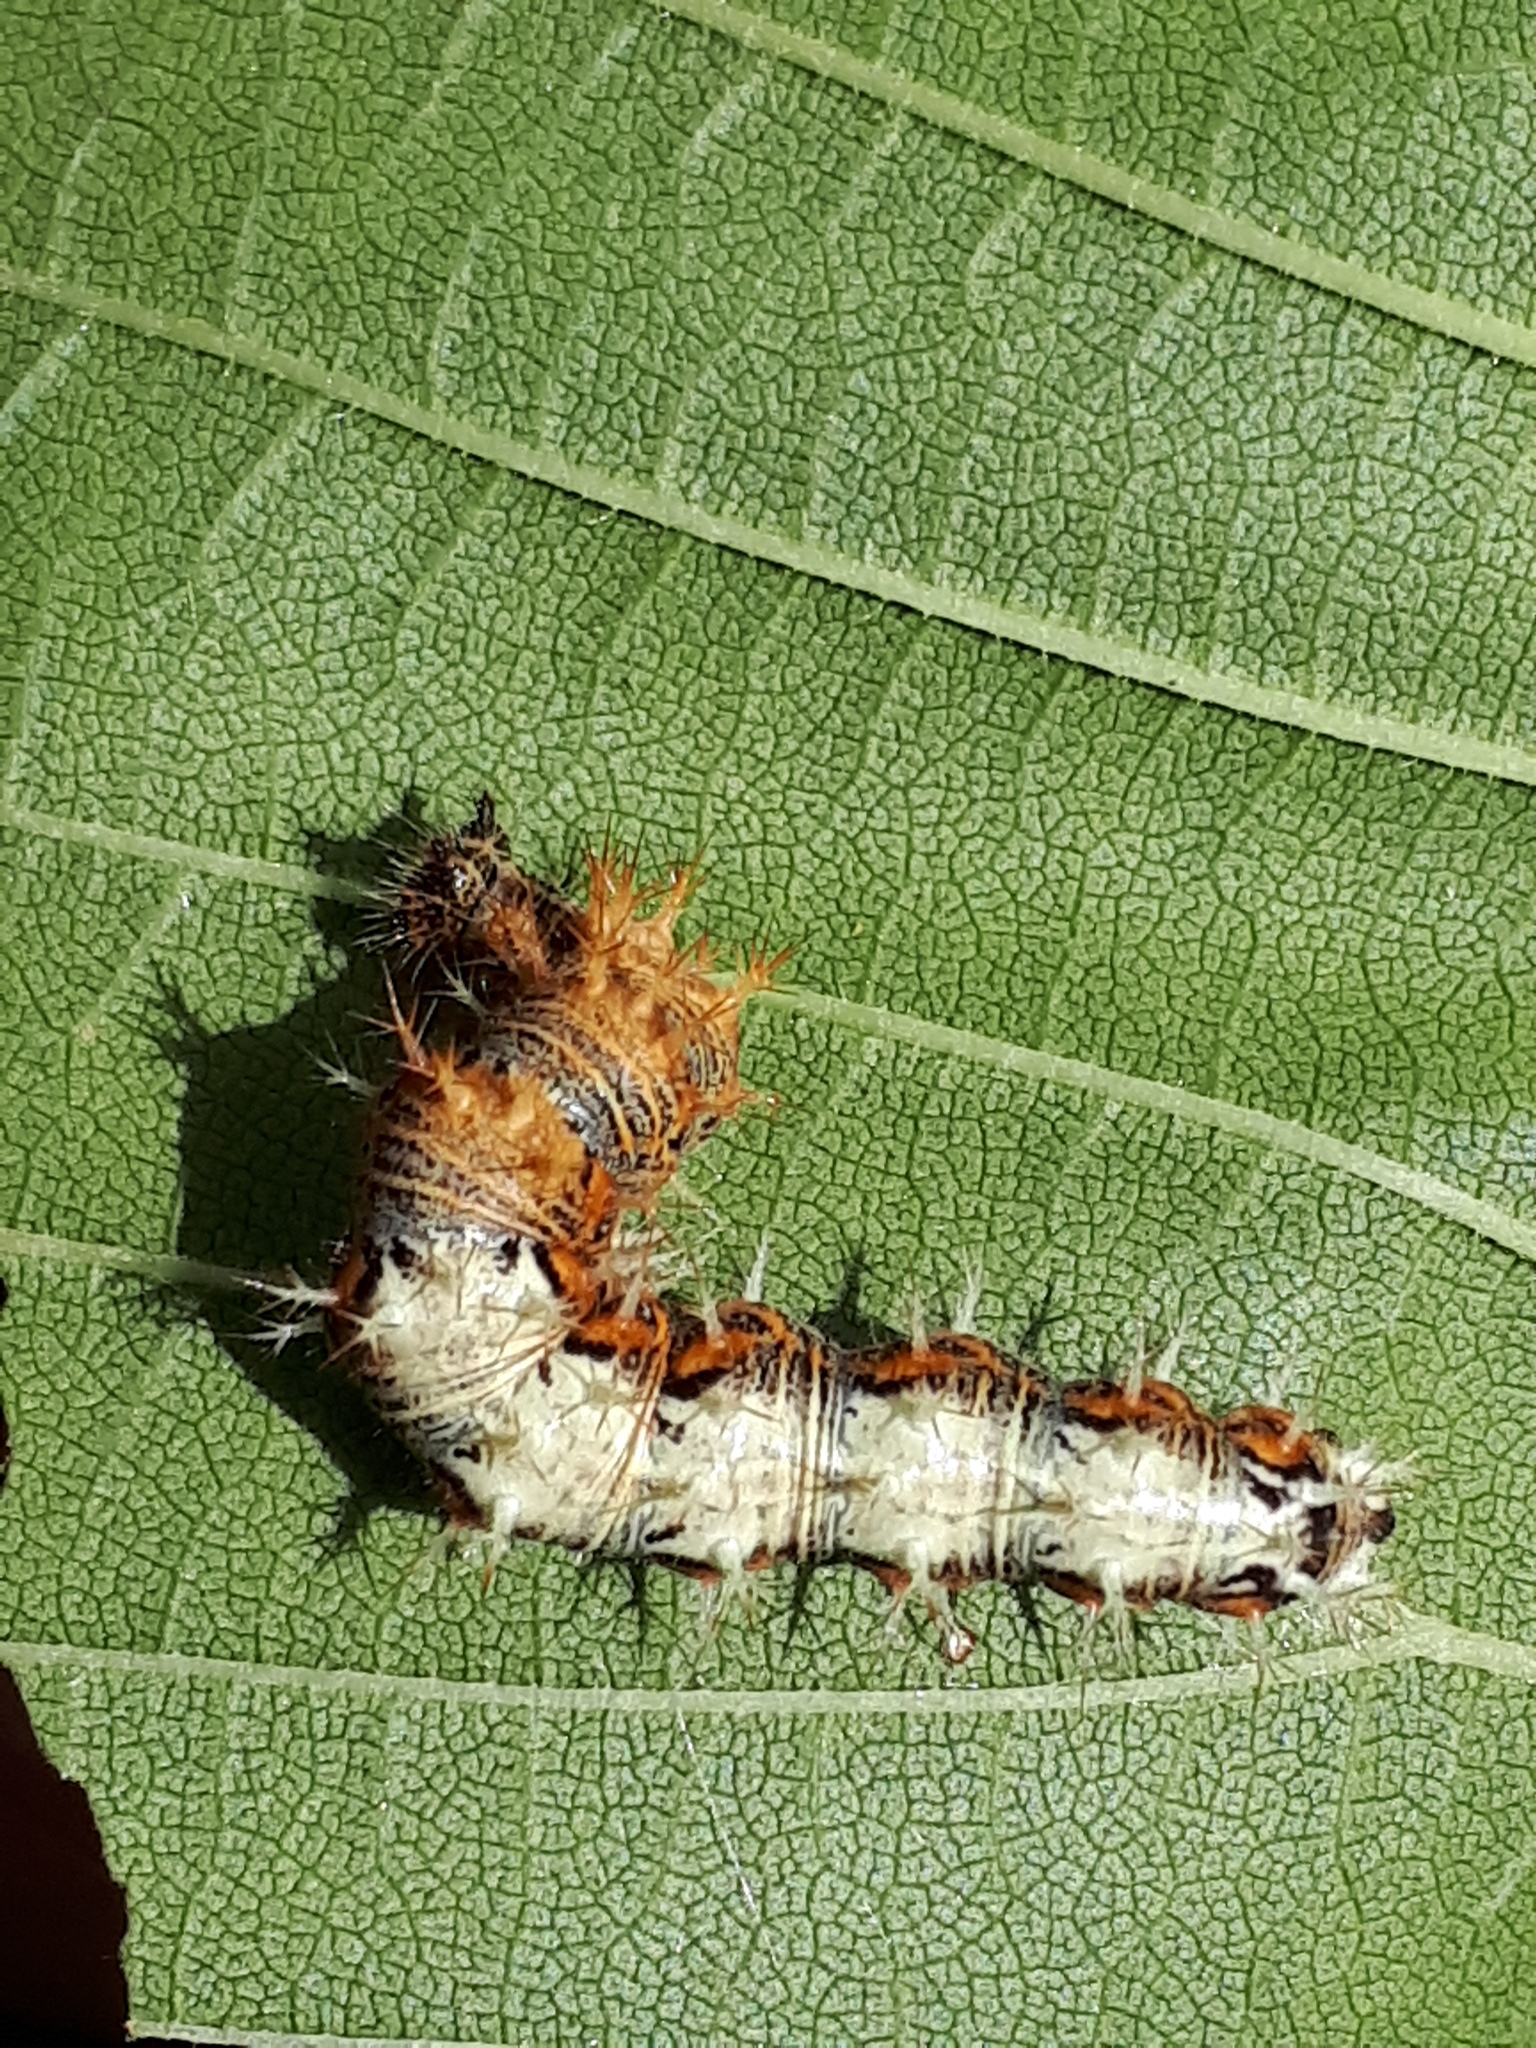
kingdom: Animalia
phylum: Arthropoda
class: Insecta
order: Lepidoptera
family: Nymphalidae
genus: Polygonia
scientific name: Polygonia c-album
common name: Comma
